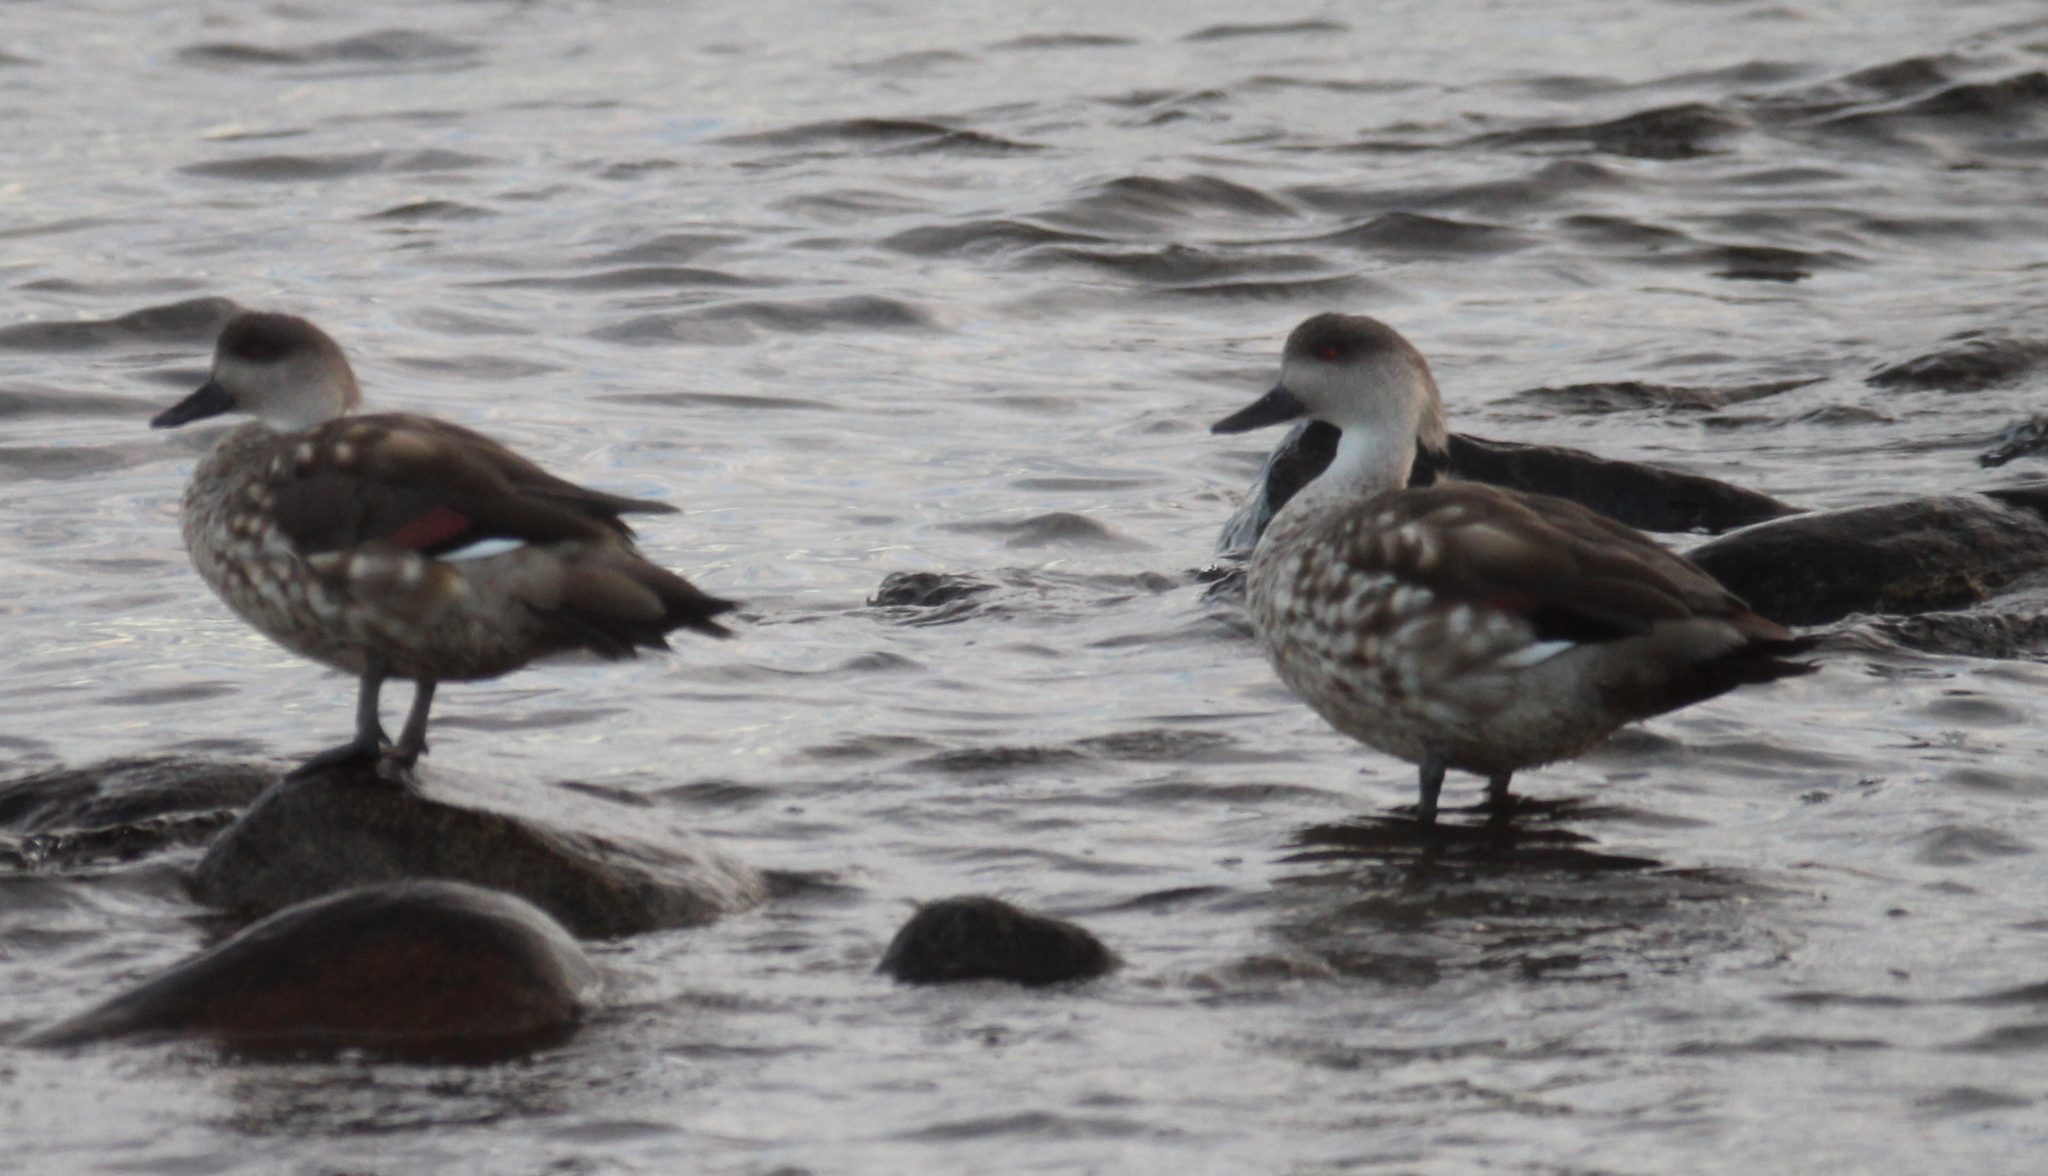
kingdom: Animalia
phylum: Chordata
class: Aves
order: Anseriformes
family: Anatidae
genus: Lophonetta
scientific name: Lophonetta specularioides
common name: Crested duck
